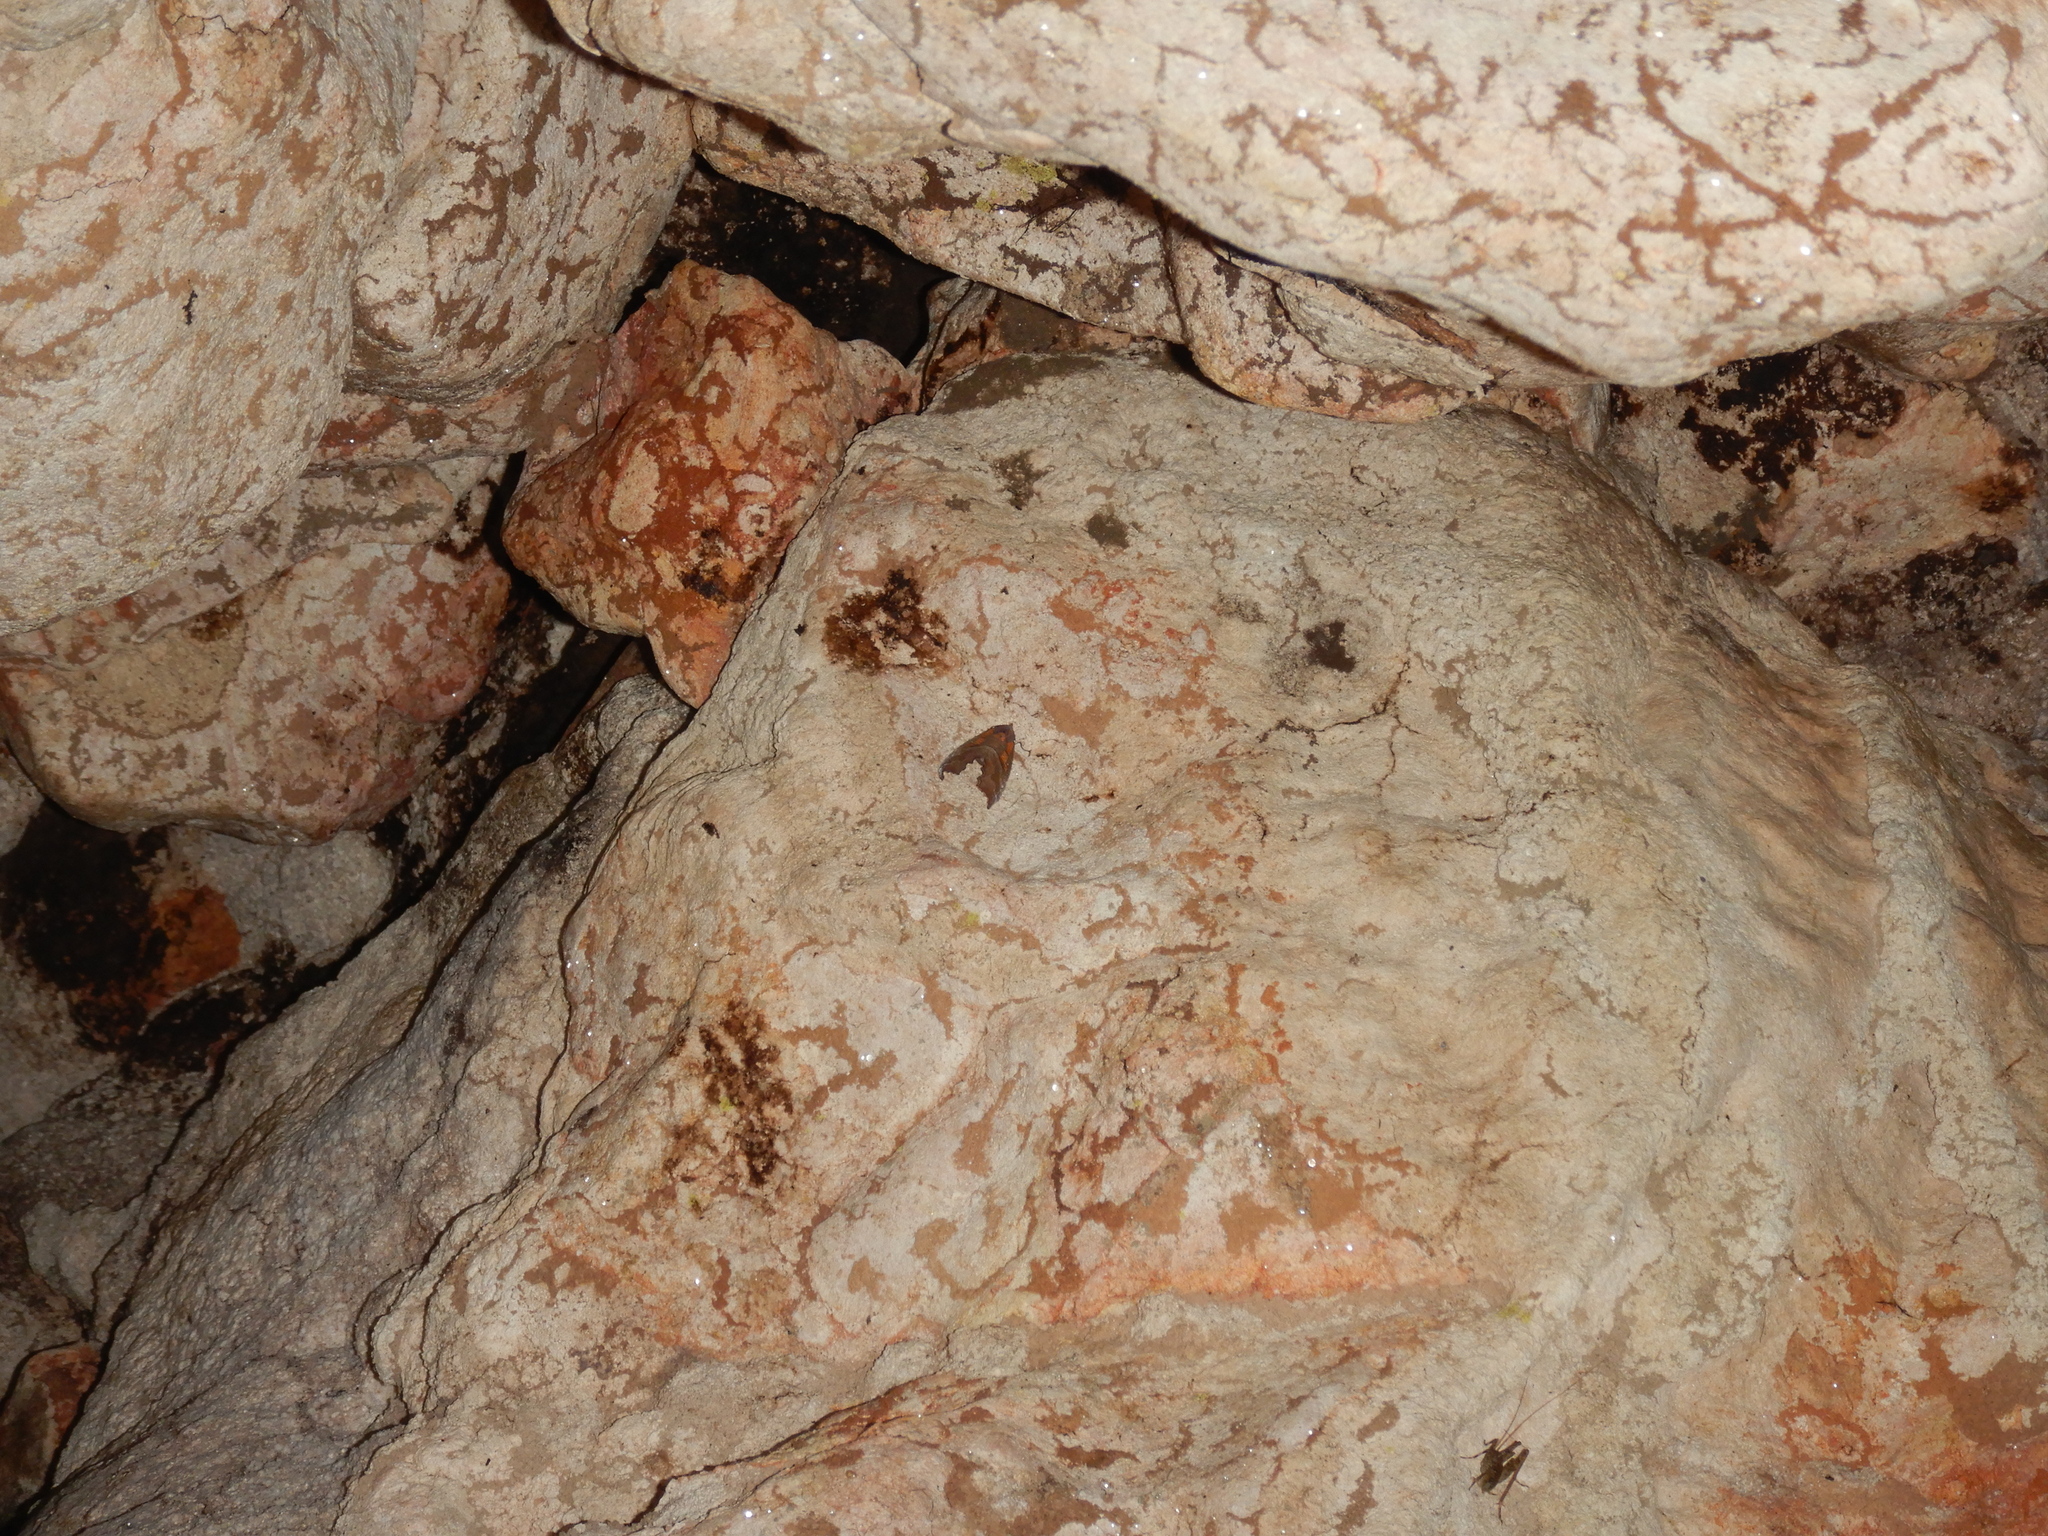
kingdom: Animalia
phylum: Arthropoda
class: Insecta
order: Lepidoptera
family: Erebidae
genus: Scoliopteryx
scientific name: Scoliopteryx libatrix
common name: Herald
